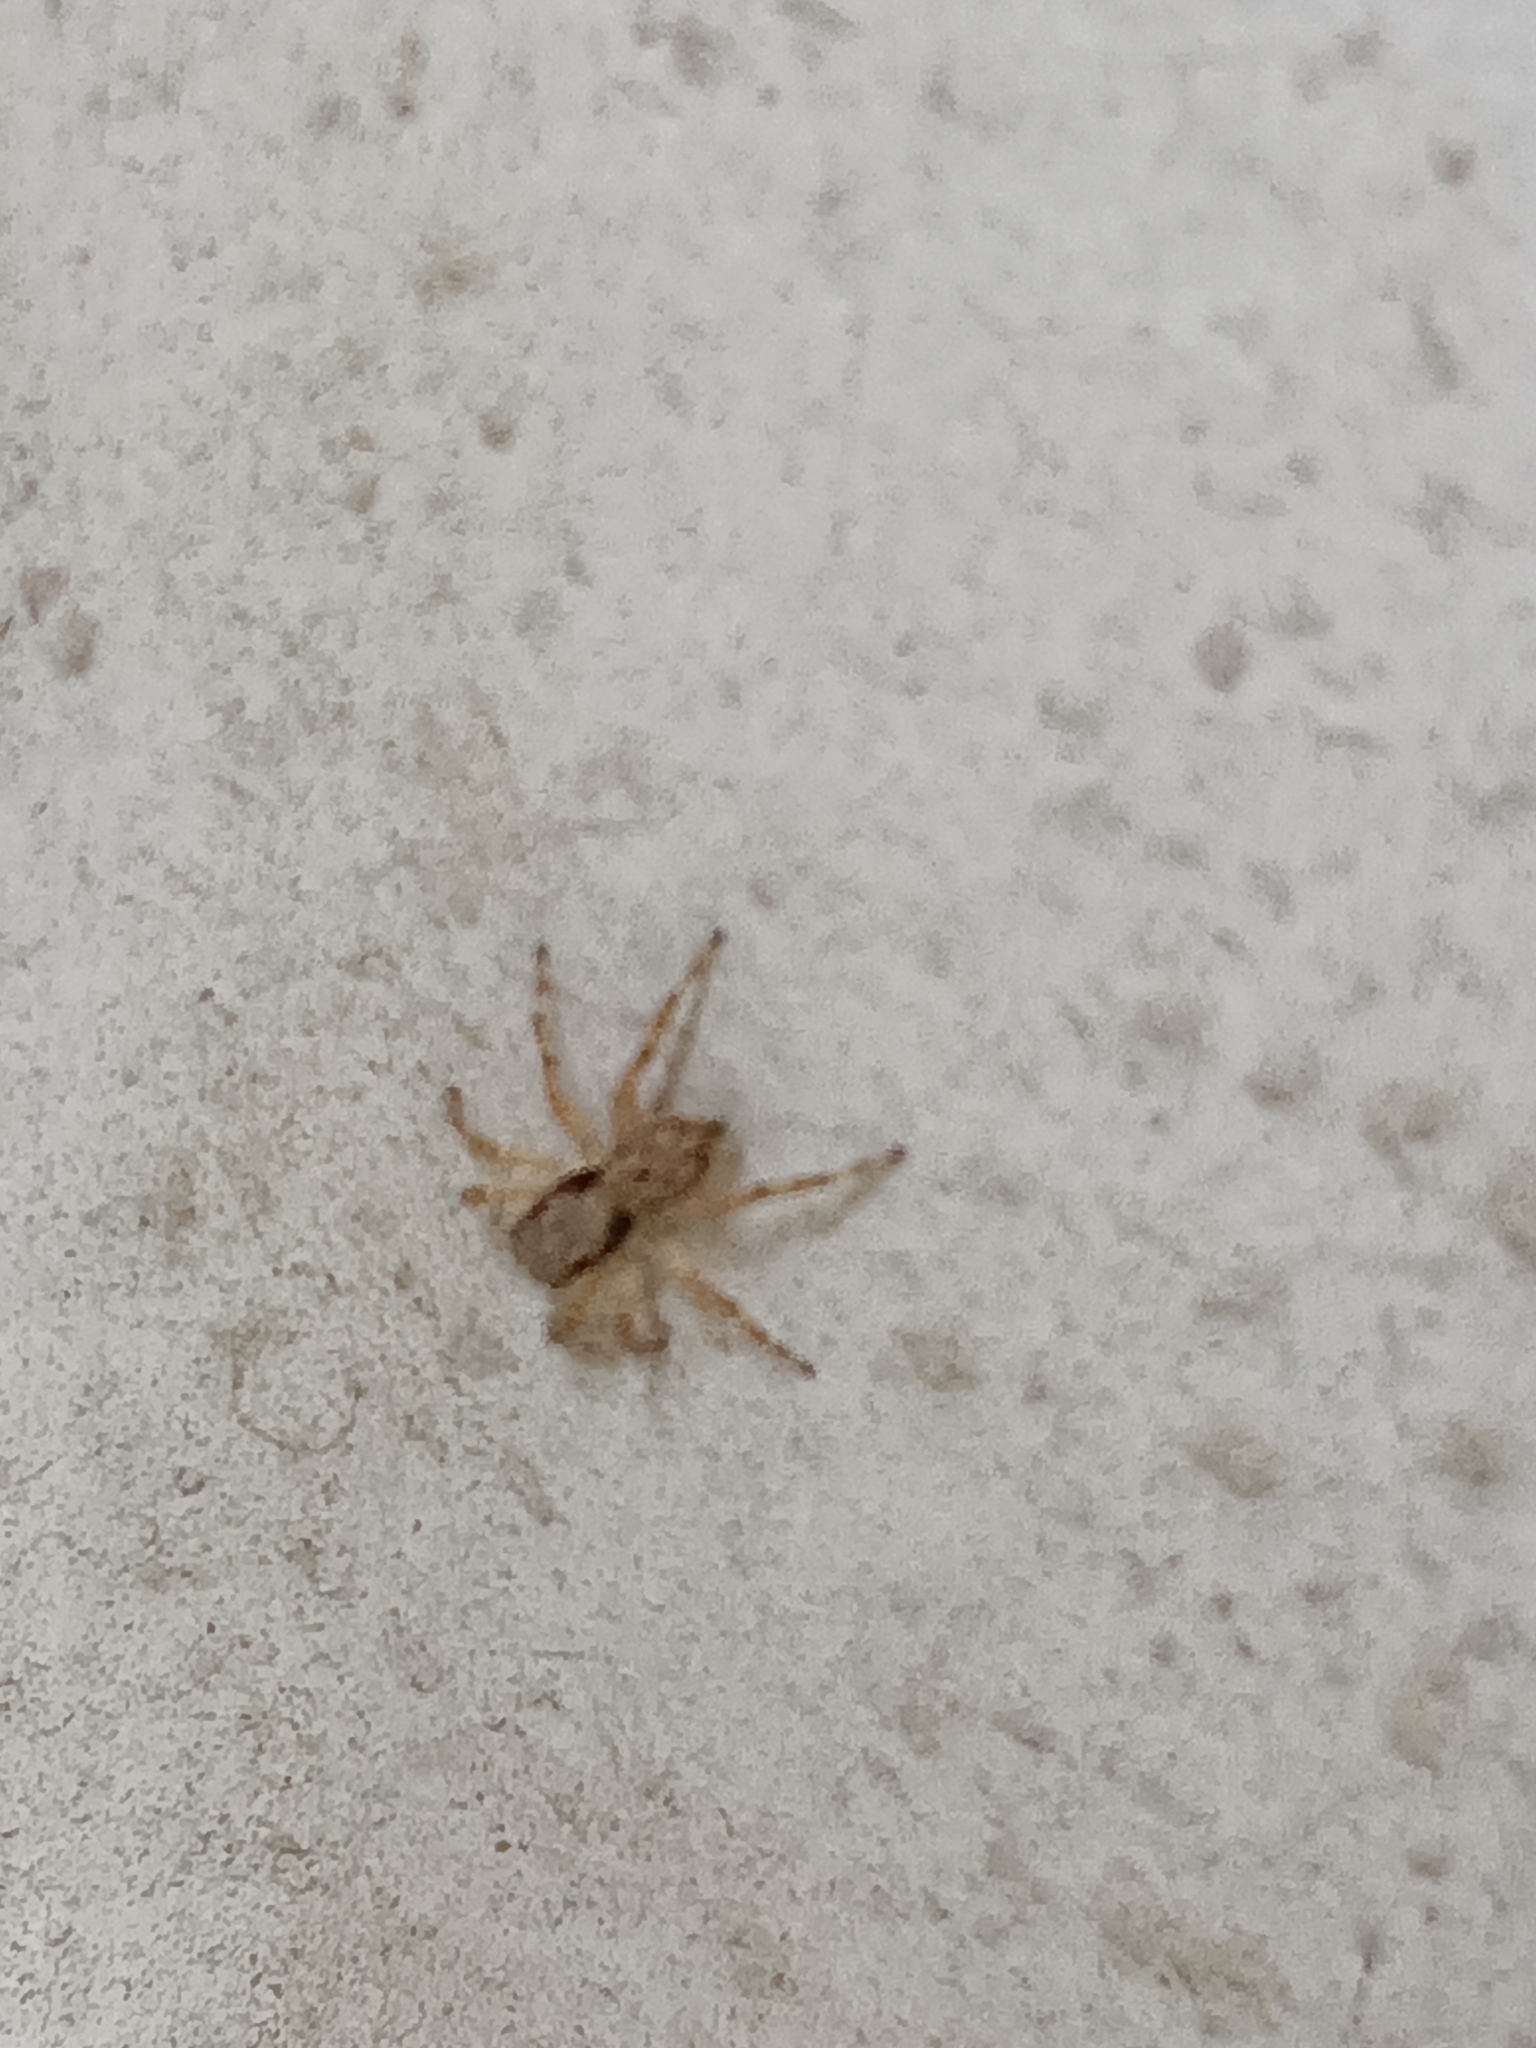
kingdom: Animalia
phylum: Arthropoda
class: Arachnida
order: Araneae
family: Salticidae
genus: Menemerus
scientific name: Menemerus bivittatus
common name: Gray wall jumper
